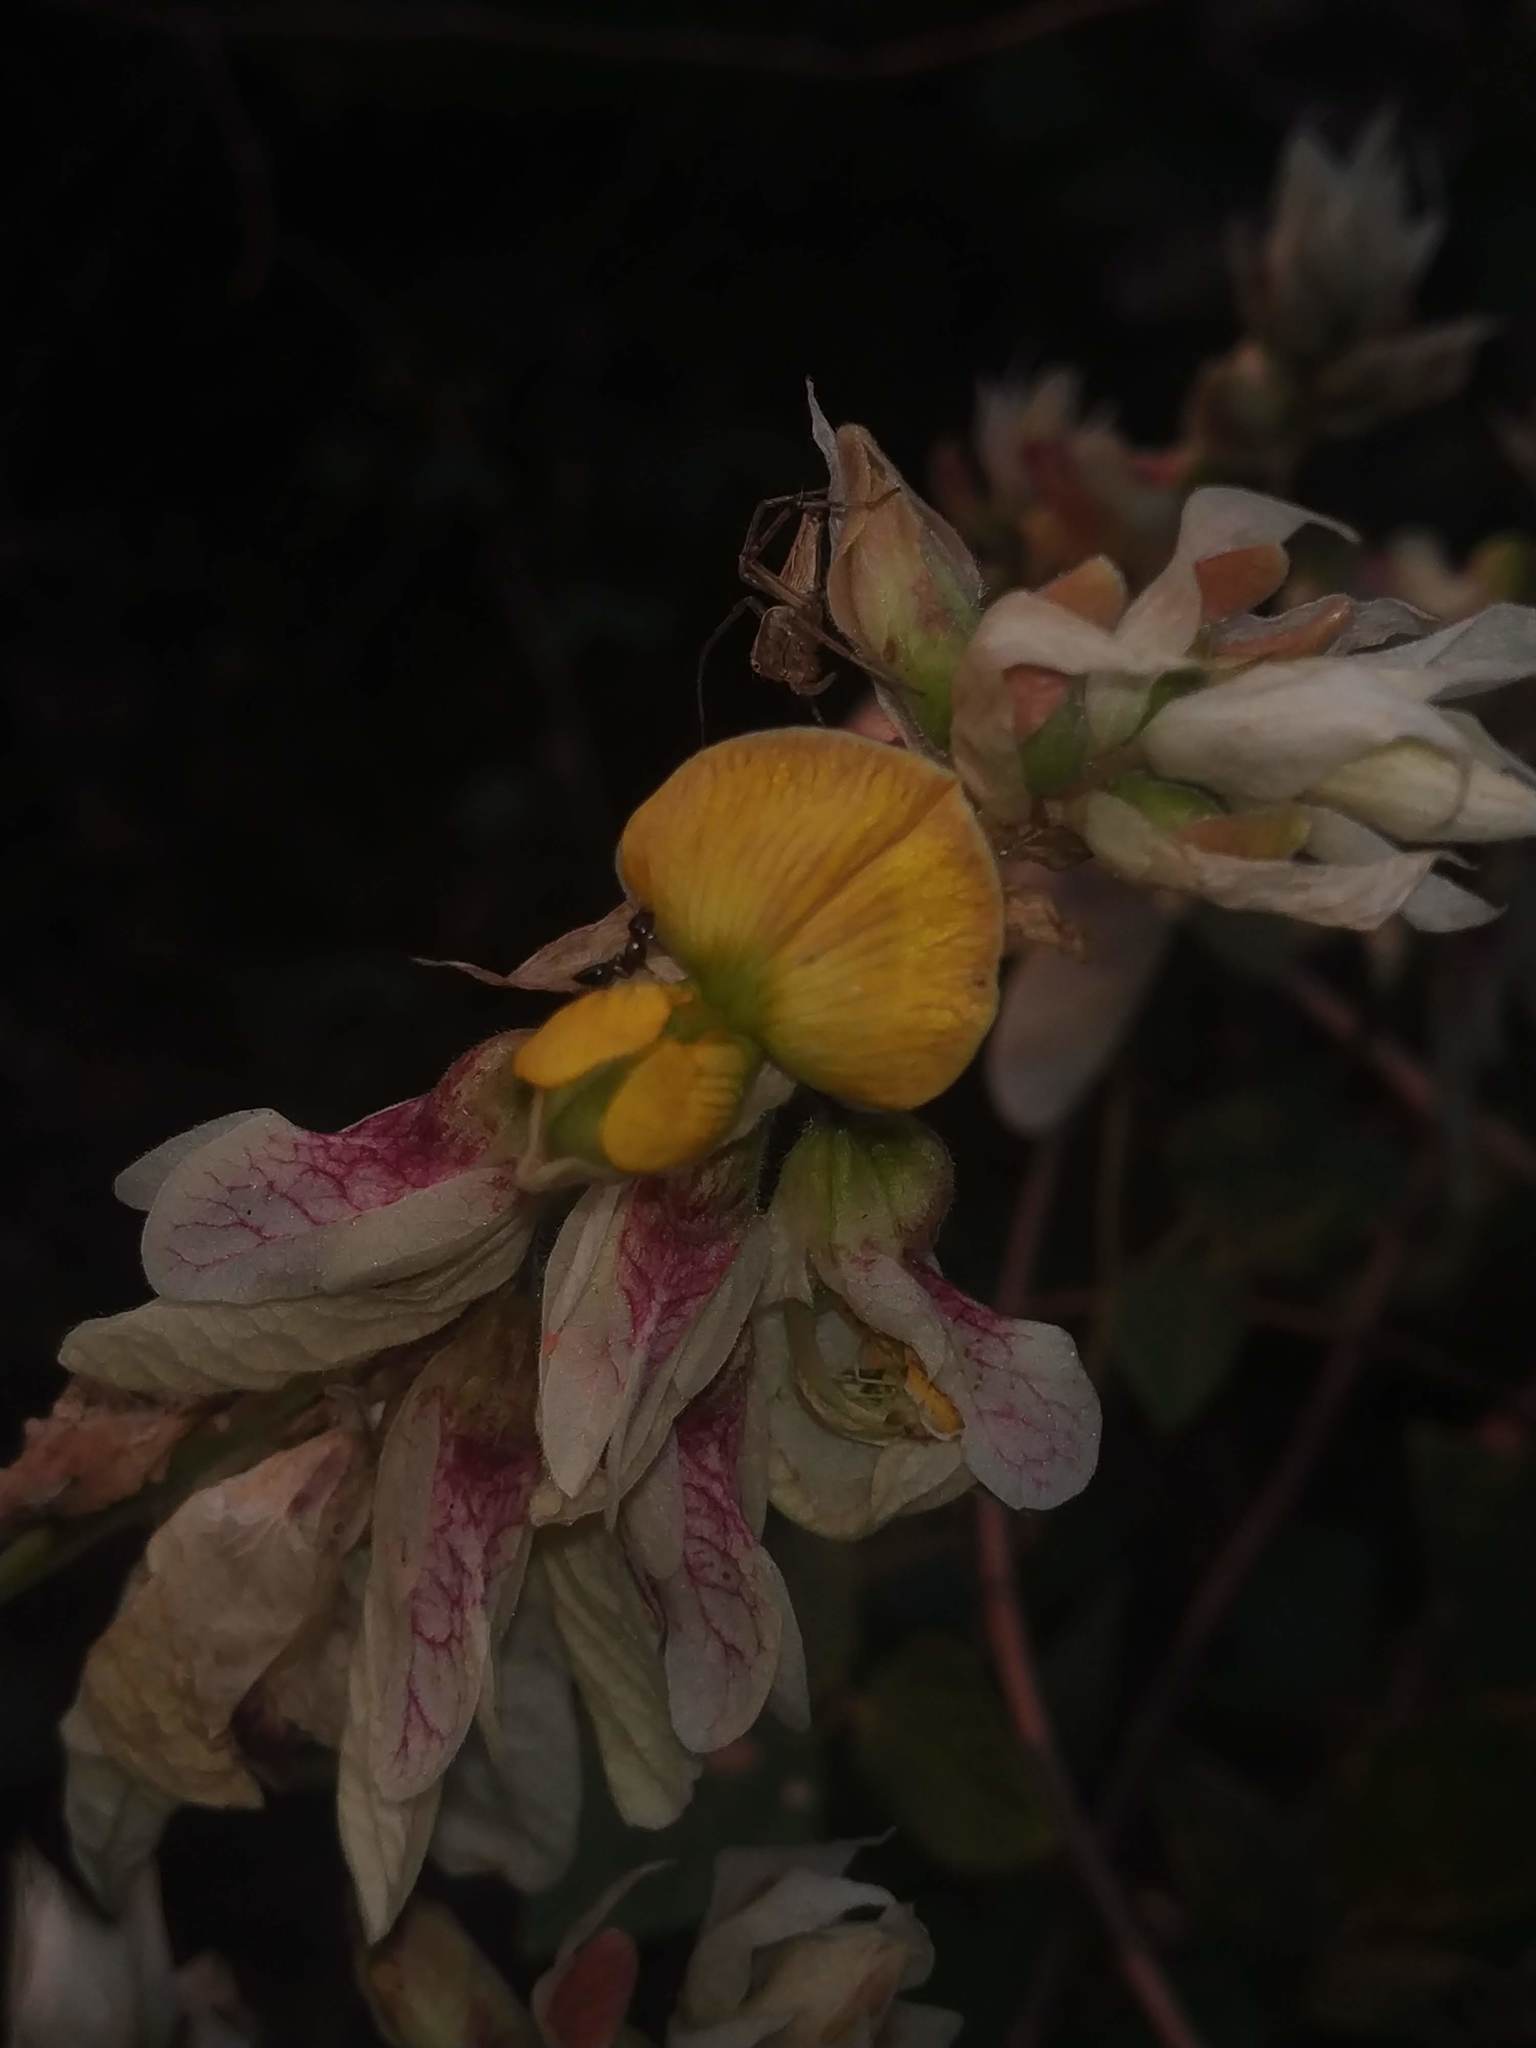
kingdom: Plantae
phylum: Tracheophyta
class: Magnoliopsida
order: Fabales
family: Fabaceae
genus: Paracalyx
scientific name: Paracalyx scariosus
